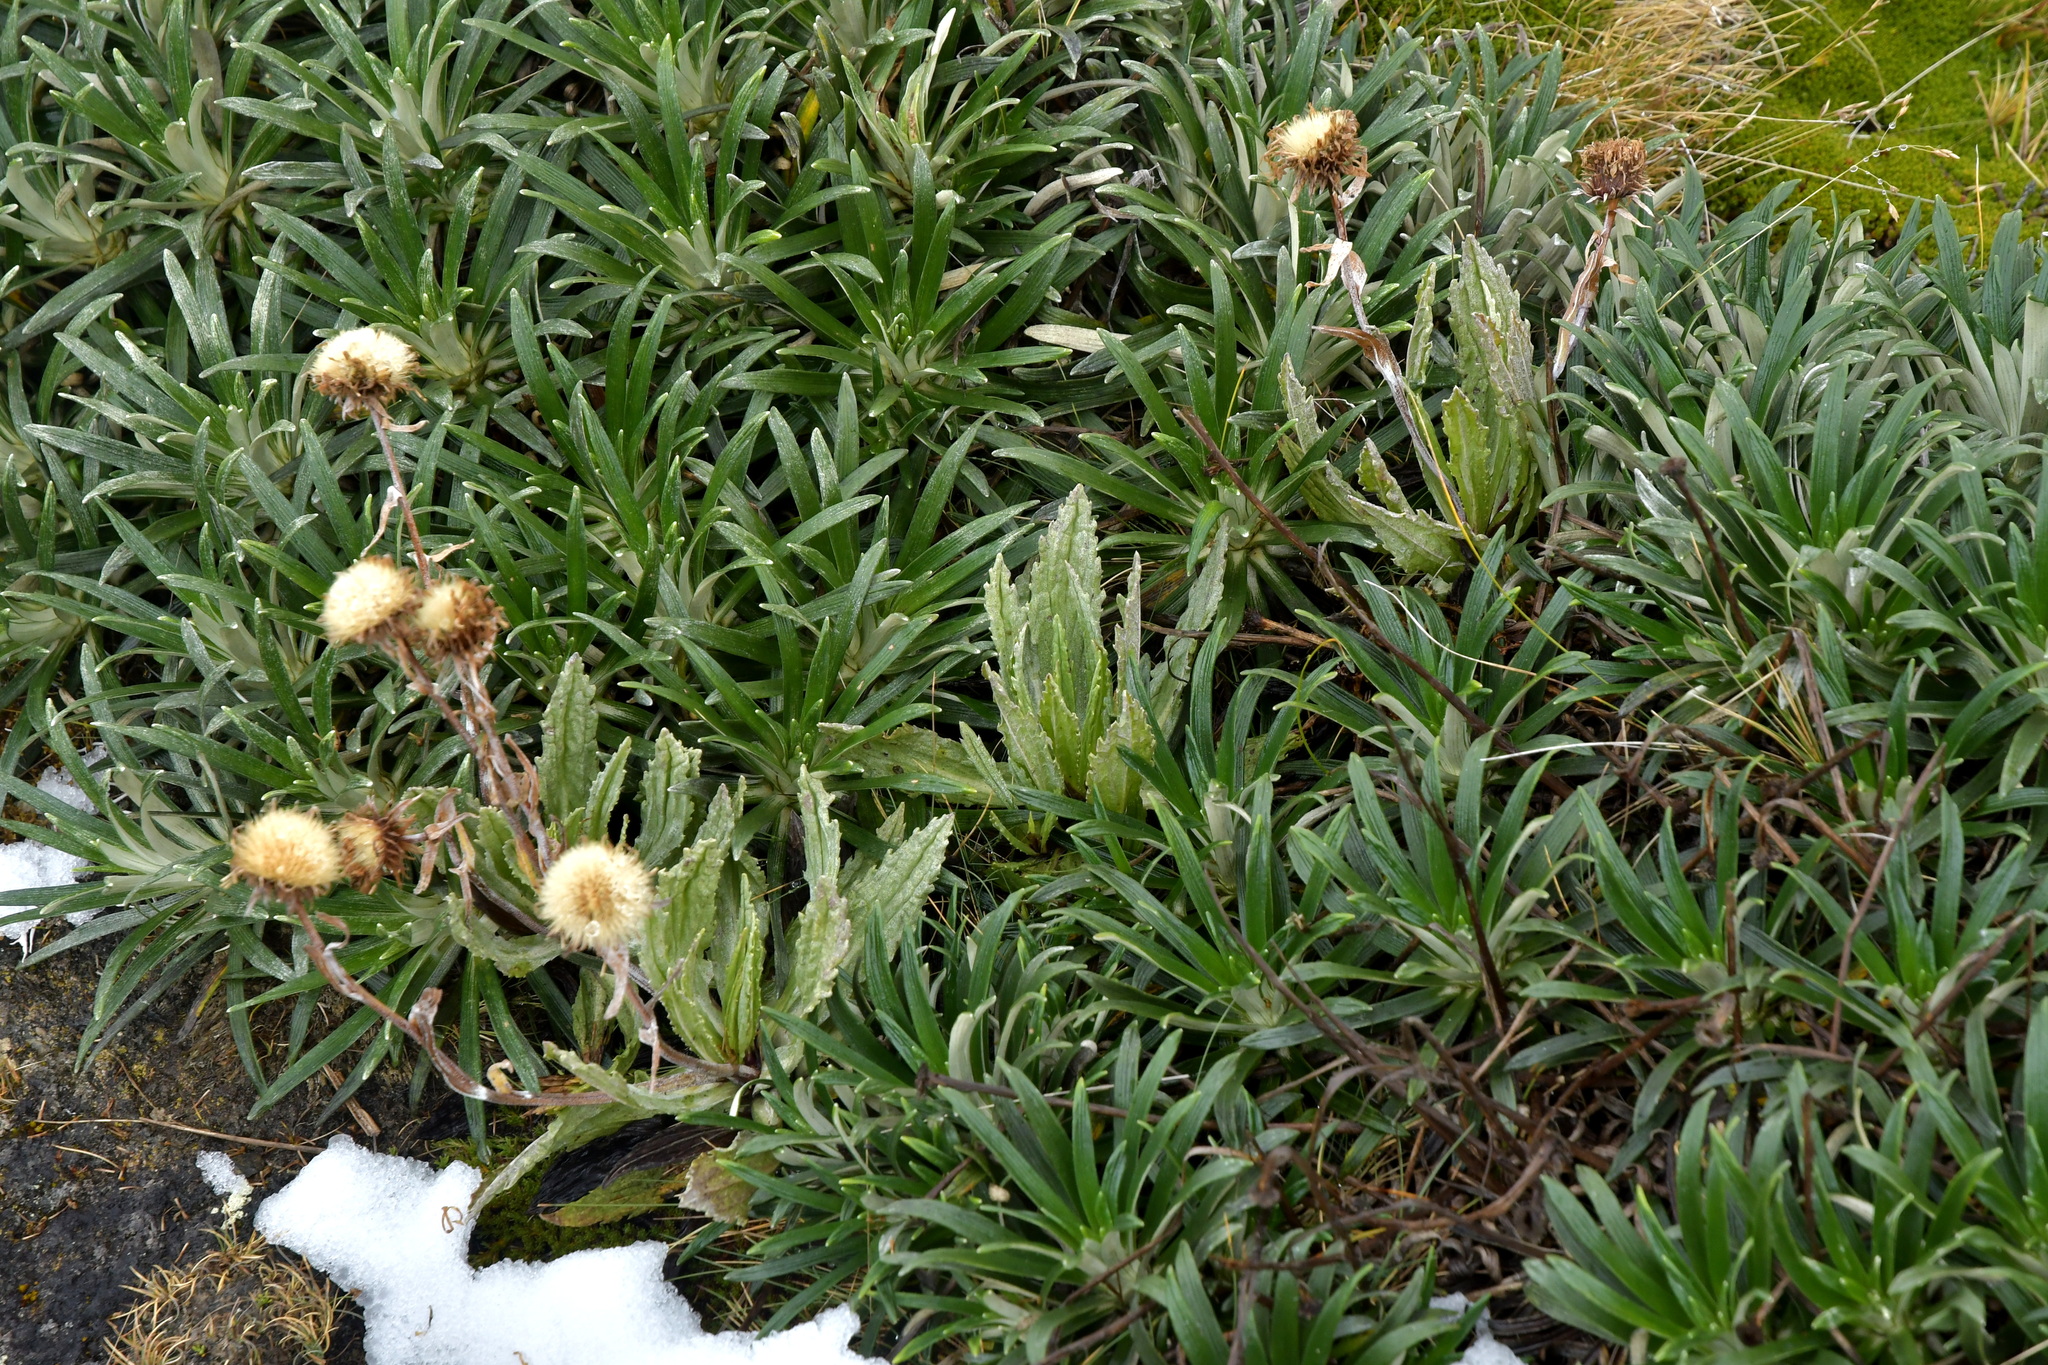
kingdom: Plantae
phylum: Tracheophyta
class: Magnoliopsida
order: Asterales
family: Asteraceae
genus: Celmisia
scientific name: Celmisia prorepens
